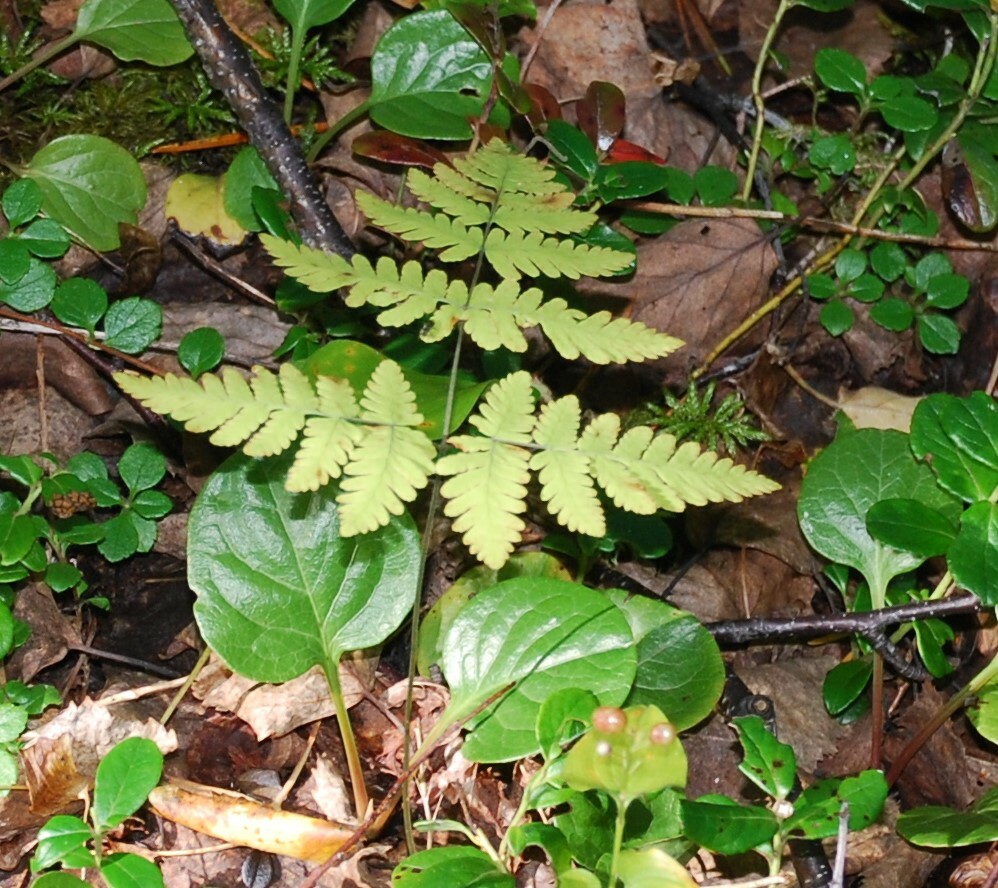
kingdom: Plantae
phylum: Tracheophyta
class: Polypodiopsida
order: Polypodiales
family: Cystopteridaceae
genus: Gymnocarpium
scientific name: Gymnocarpium dryopteris
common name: Oak fern
